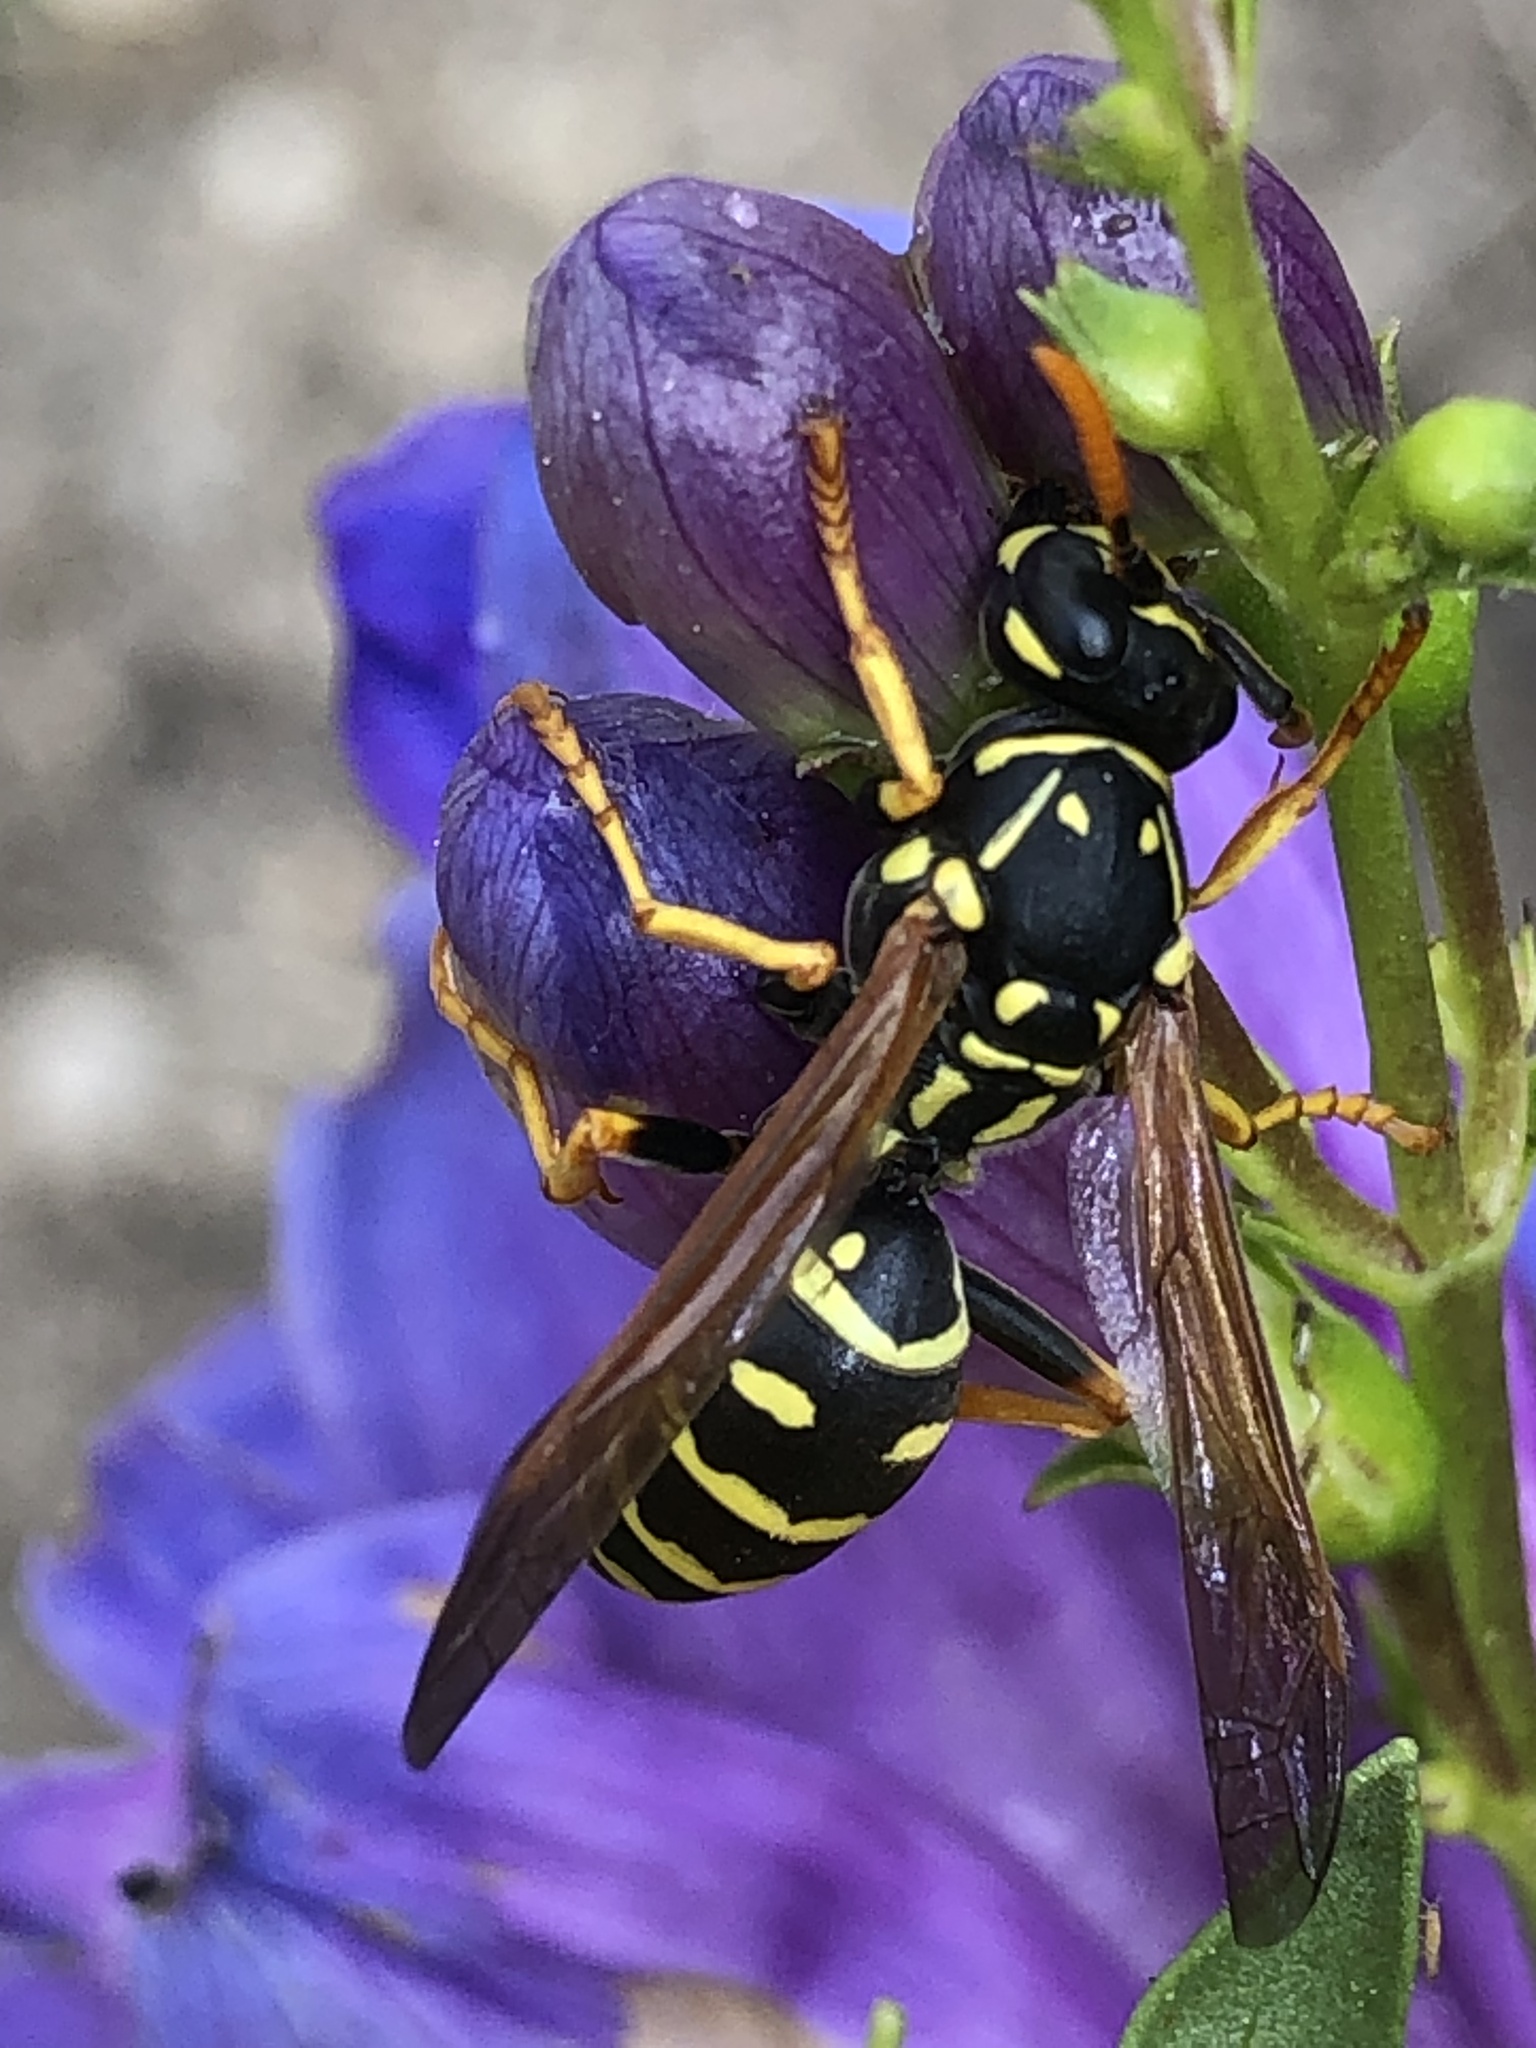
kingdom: Animalia
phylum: Arthropoda
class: Insecta
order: Hymenoptera
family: Eumenidae
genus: Polistes
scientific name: Polistes dominula
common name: Paper wasp
